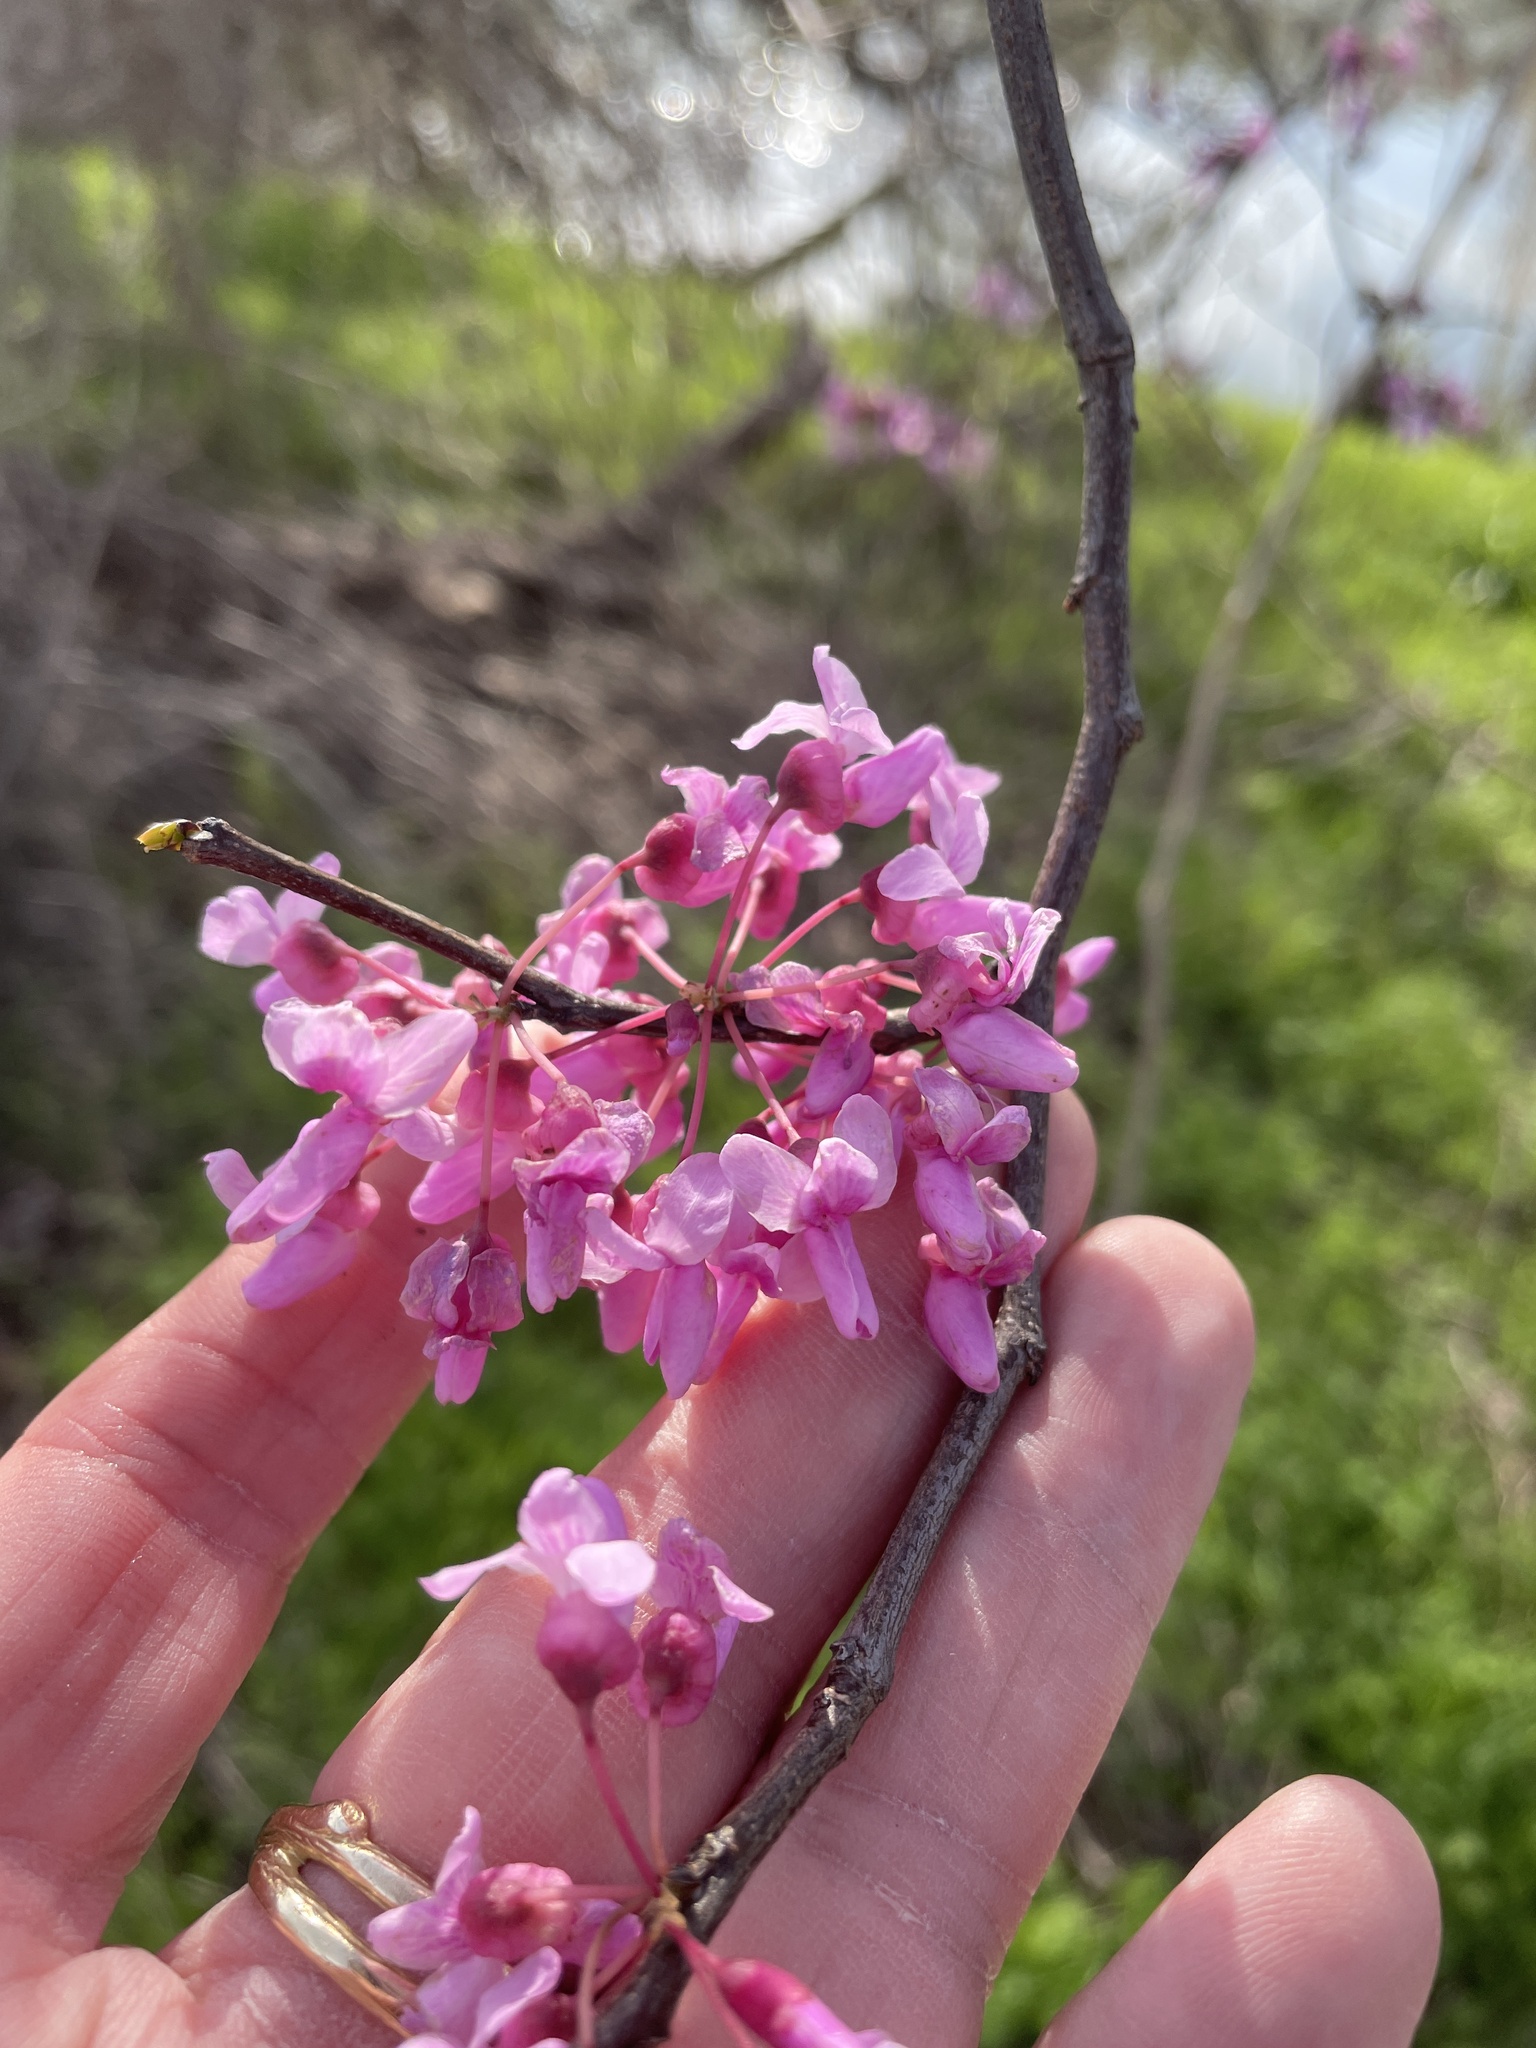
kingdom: Plantae
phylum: Tracheophyta
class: Magnoliopsida
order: Fabales
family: Fabaceae
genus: Cercis
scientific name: Cercis canadensis
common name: Eastern redbud
